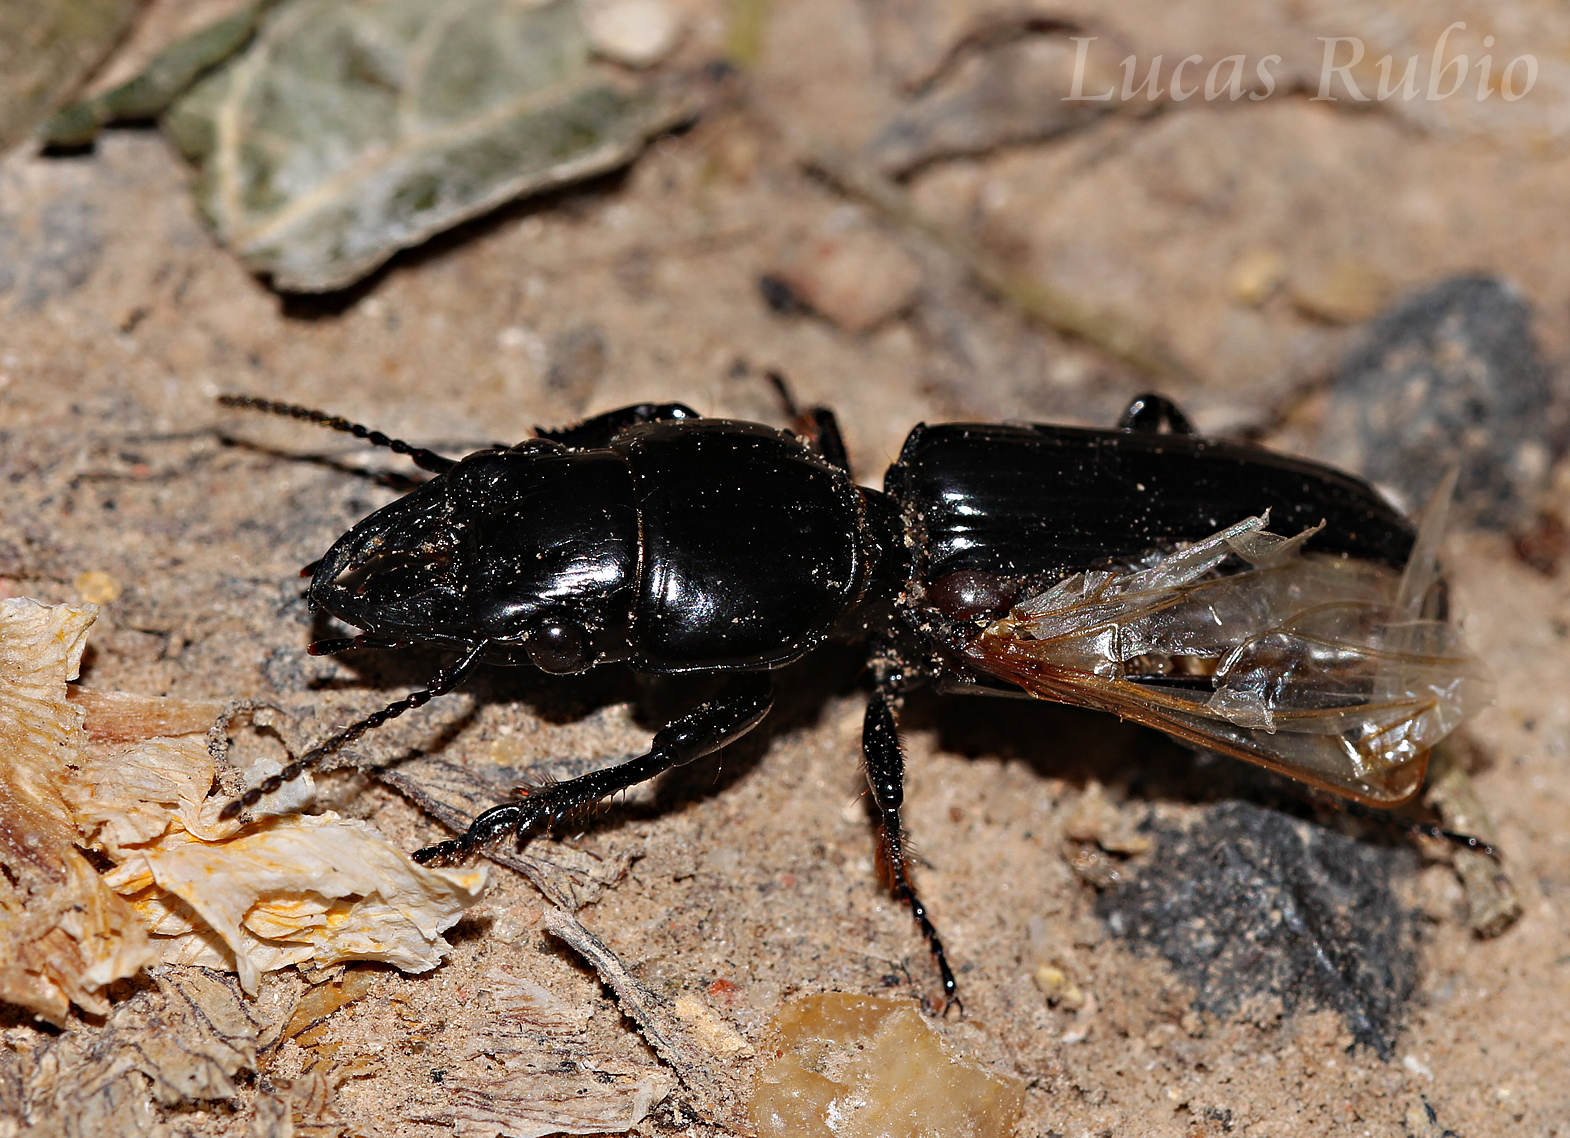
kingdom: Animalia
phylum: Arthropoda
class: Insecta
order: Coleoptera
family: Carabidae
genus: Scarites
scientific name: Scarites anthracinus
